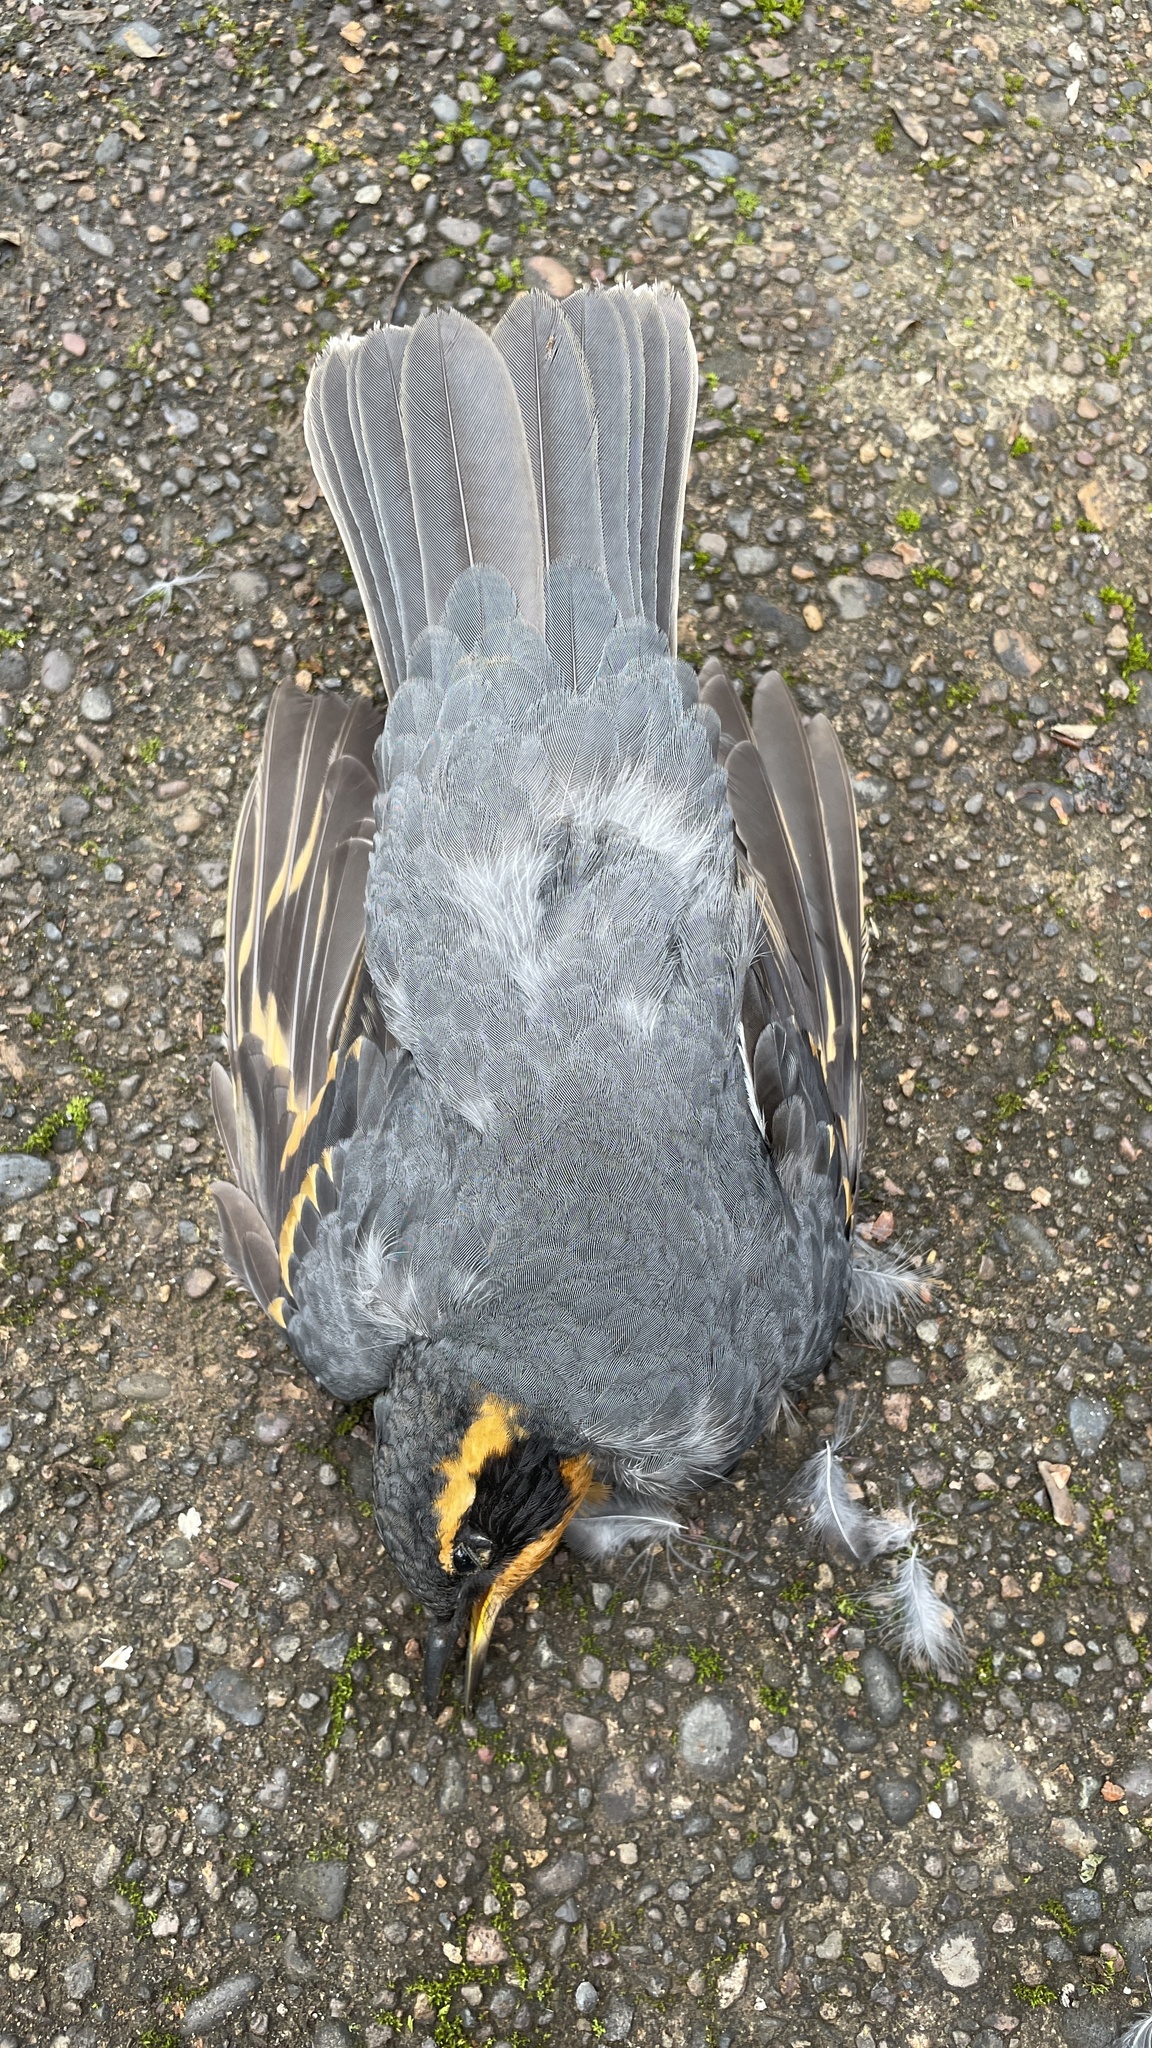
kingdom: Animalia
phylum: Chordata
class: Aves
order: Passeriformes
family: Turdidae
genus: Ixoreus
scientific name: Ixoreus naevius
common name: Varied thrush
